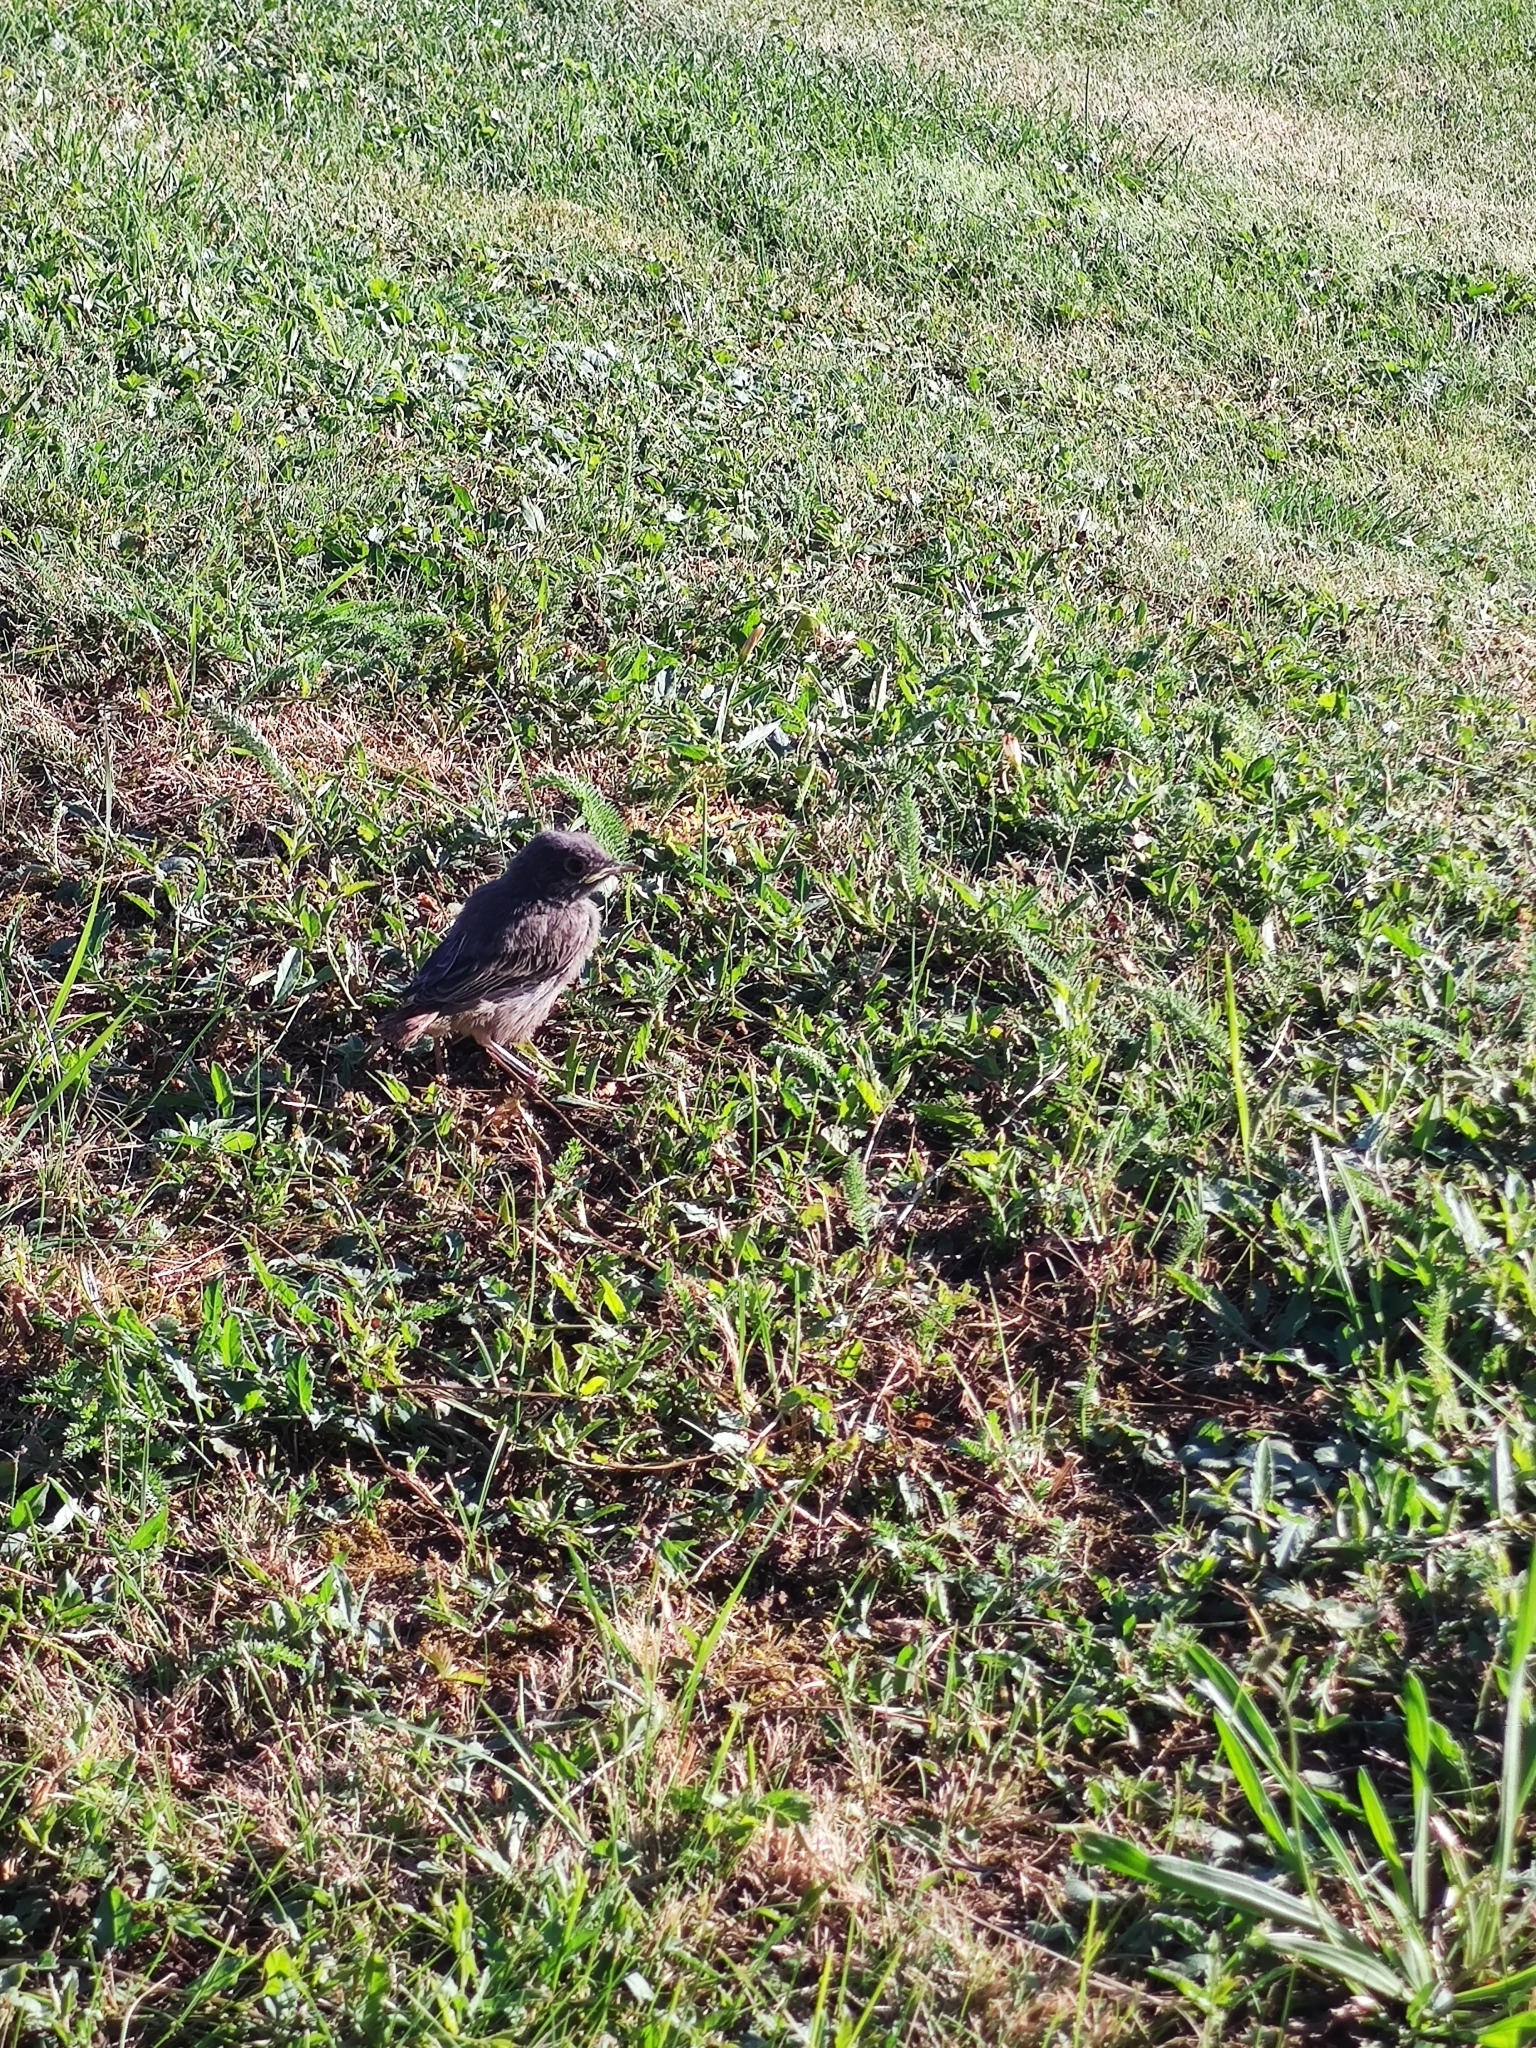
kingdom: Animalia
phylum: Chordata
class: Aves
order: Passeriformes
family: Muscicapidae
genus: Phoenicurus
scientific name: Phoenicurus ochruros
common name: Black redstart
